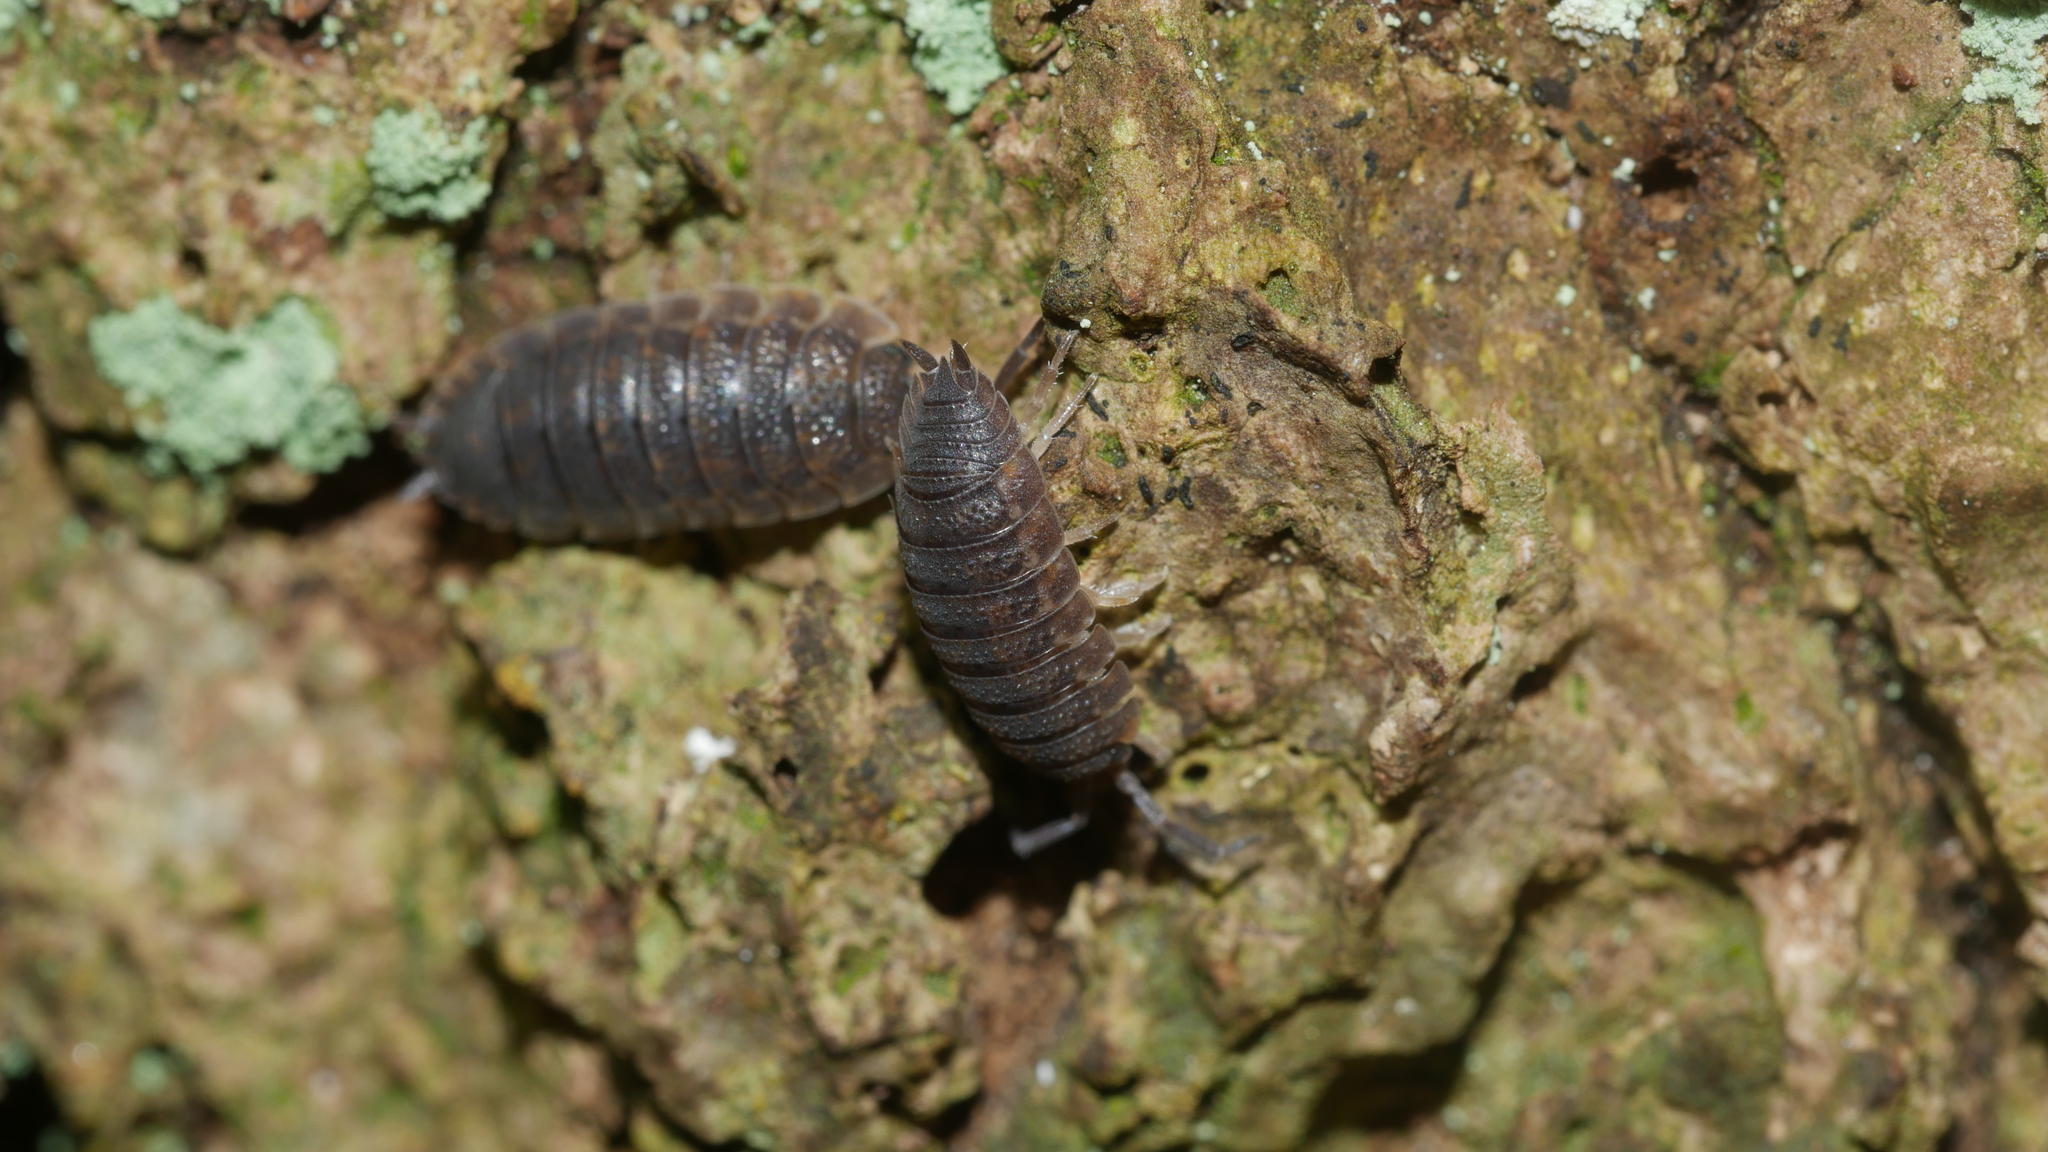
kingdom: Animalia
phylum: Arthropoda
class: Malacostraca
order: Isopoda
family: Porcellionidae
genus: Porcellio
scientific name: Porcellio scaber
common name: Common rough woodlouse
